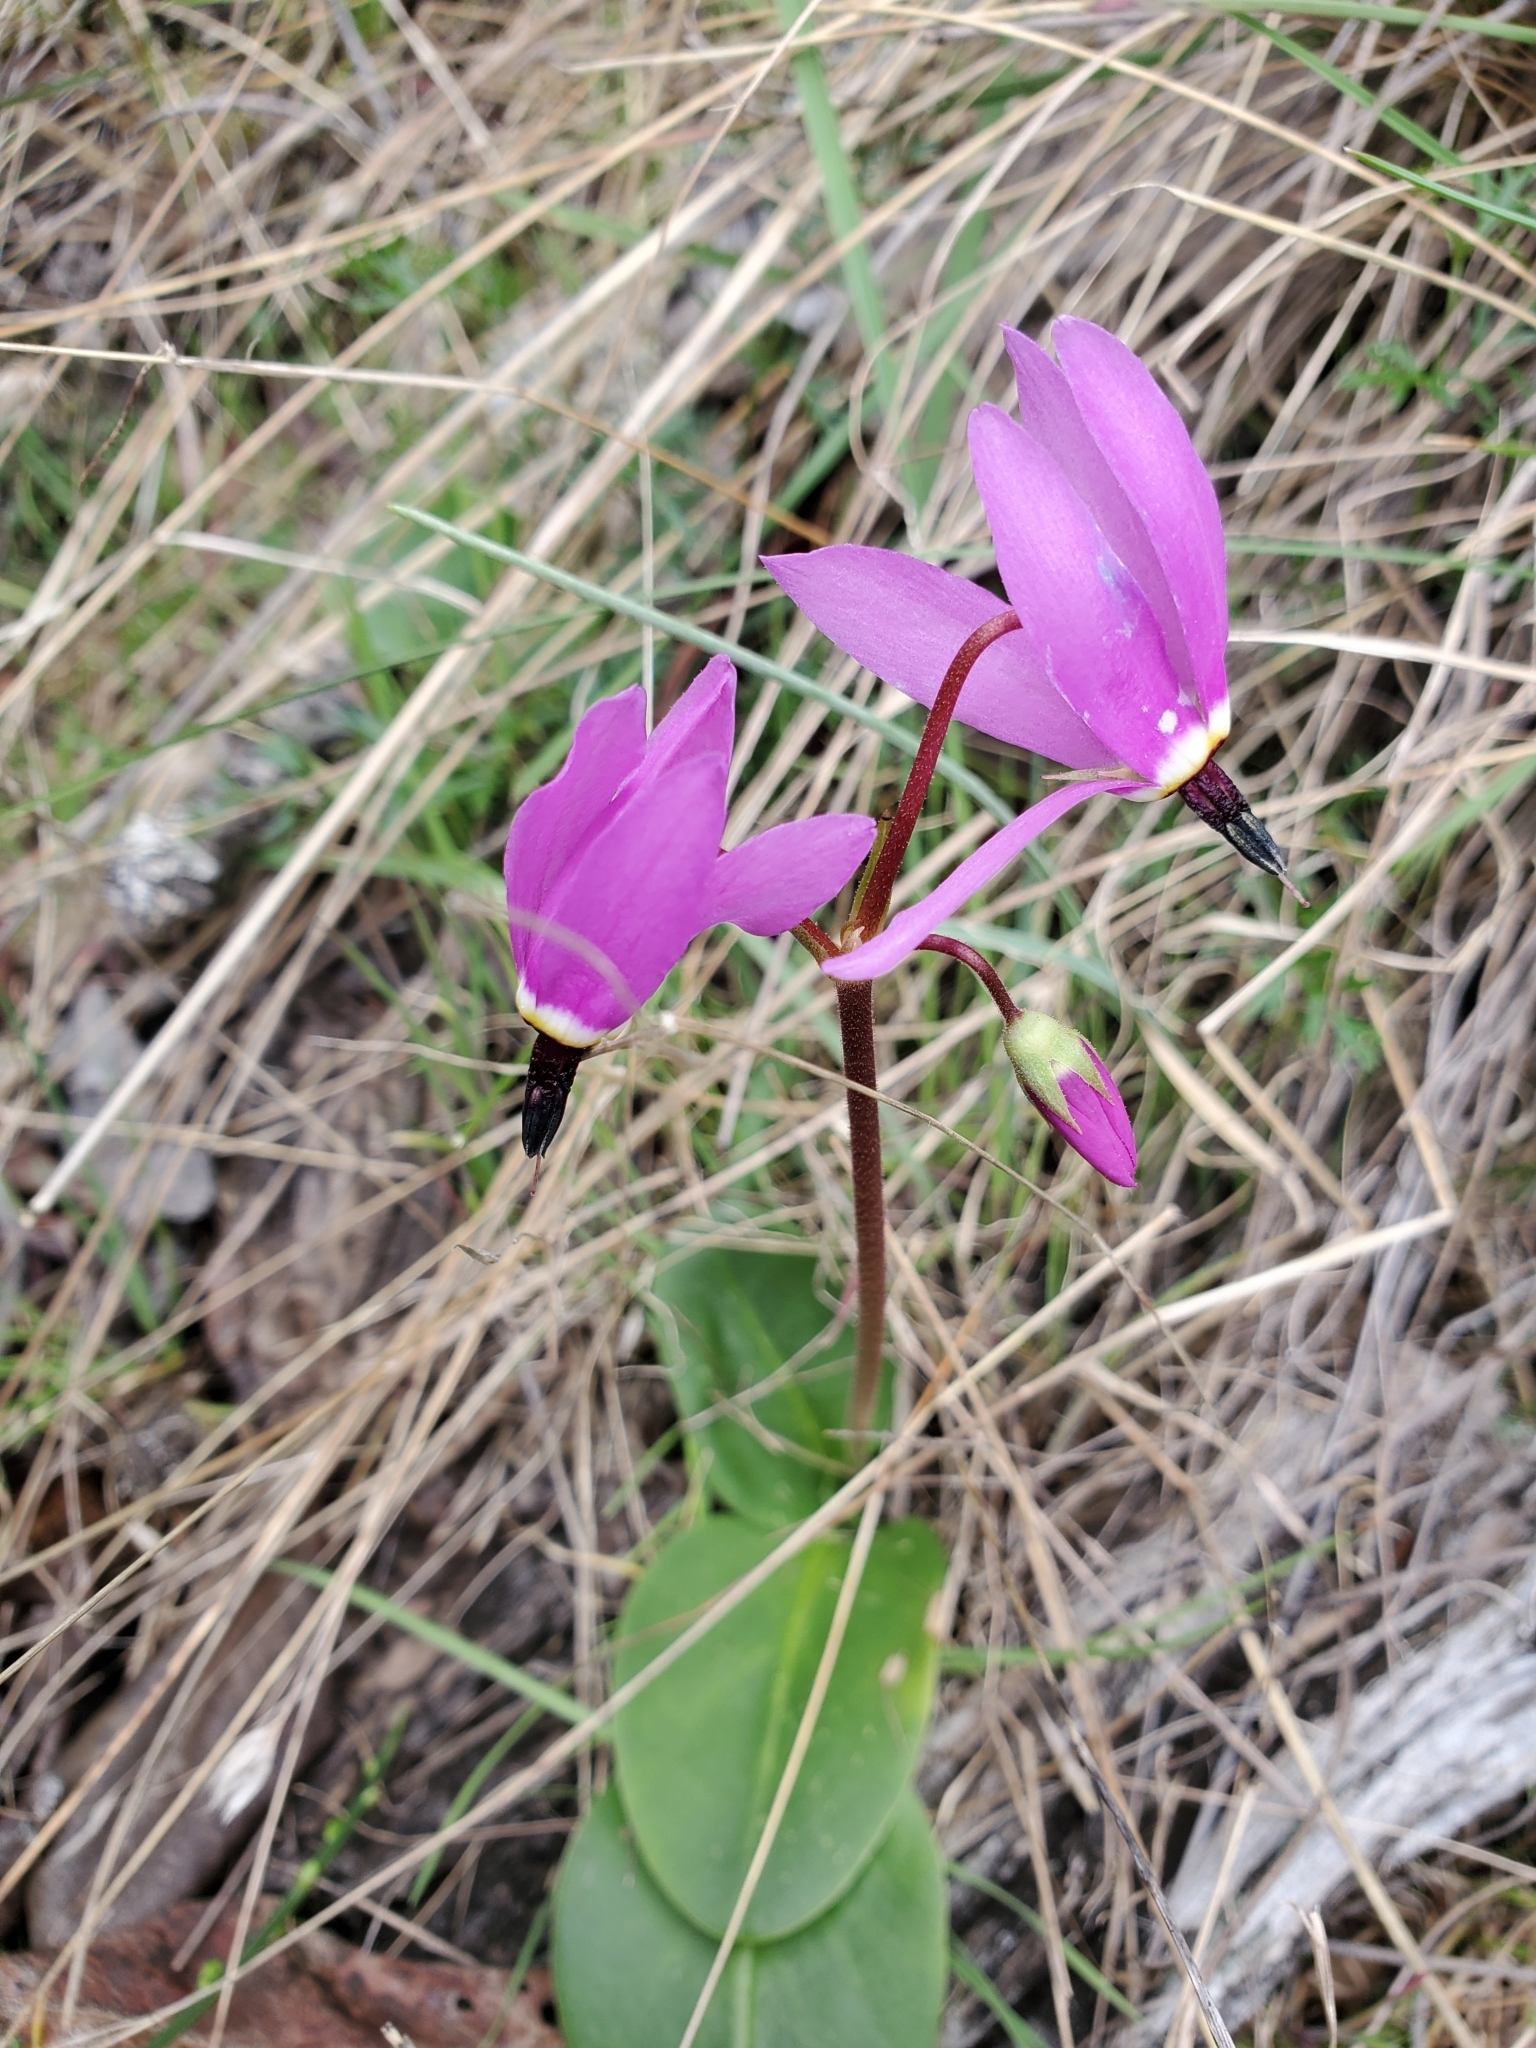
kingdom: Plantae
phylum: Tracheophyta
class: Magnoliopsida
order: Ericales
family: Primulaceae
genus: Dodecatheon
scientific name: Dodecatheon hendersonii
